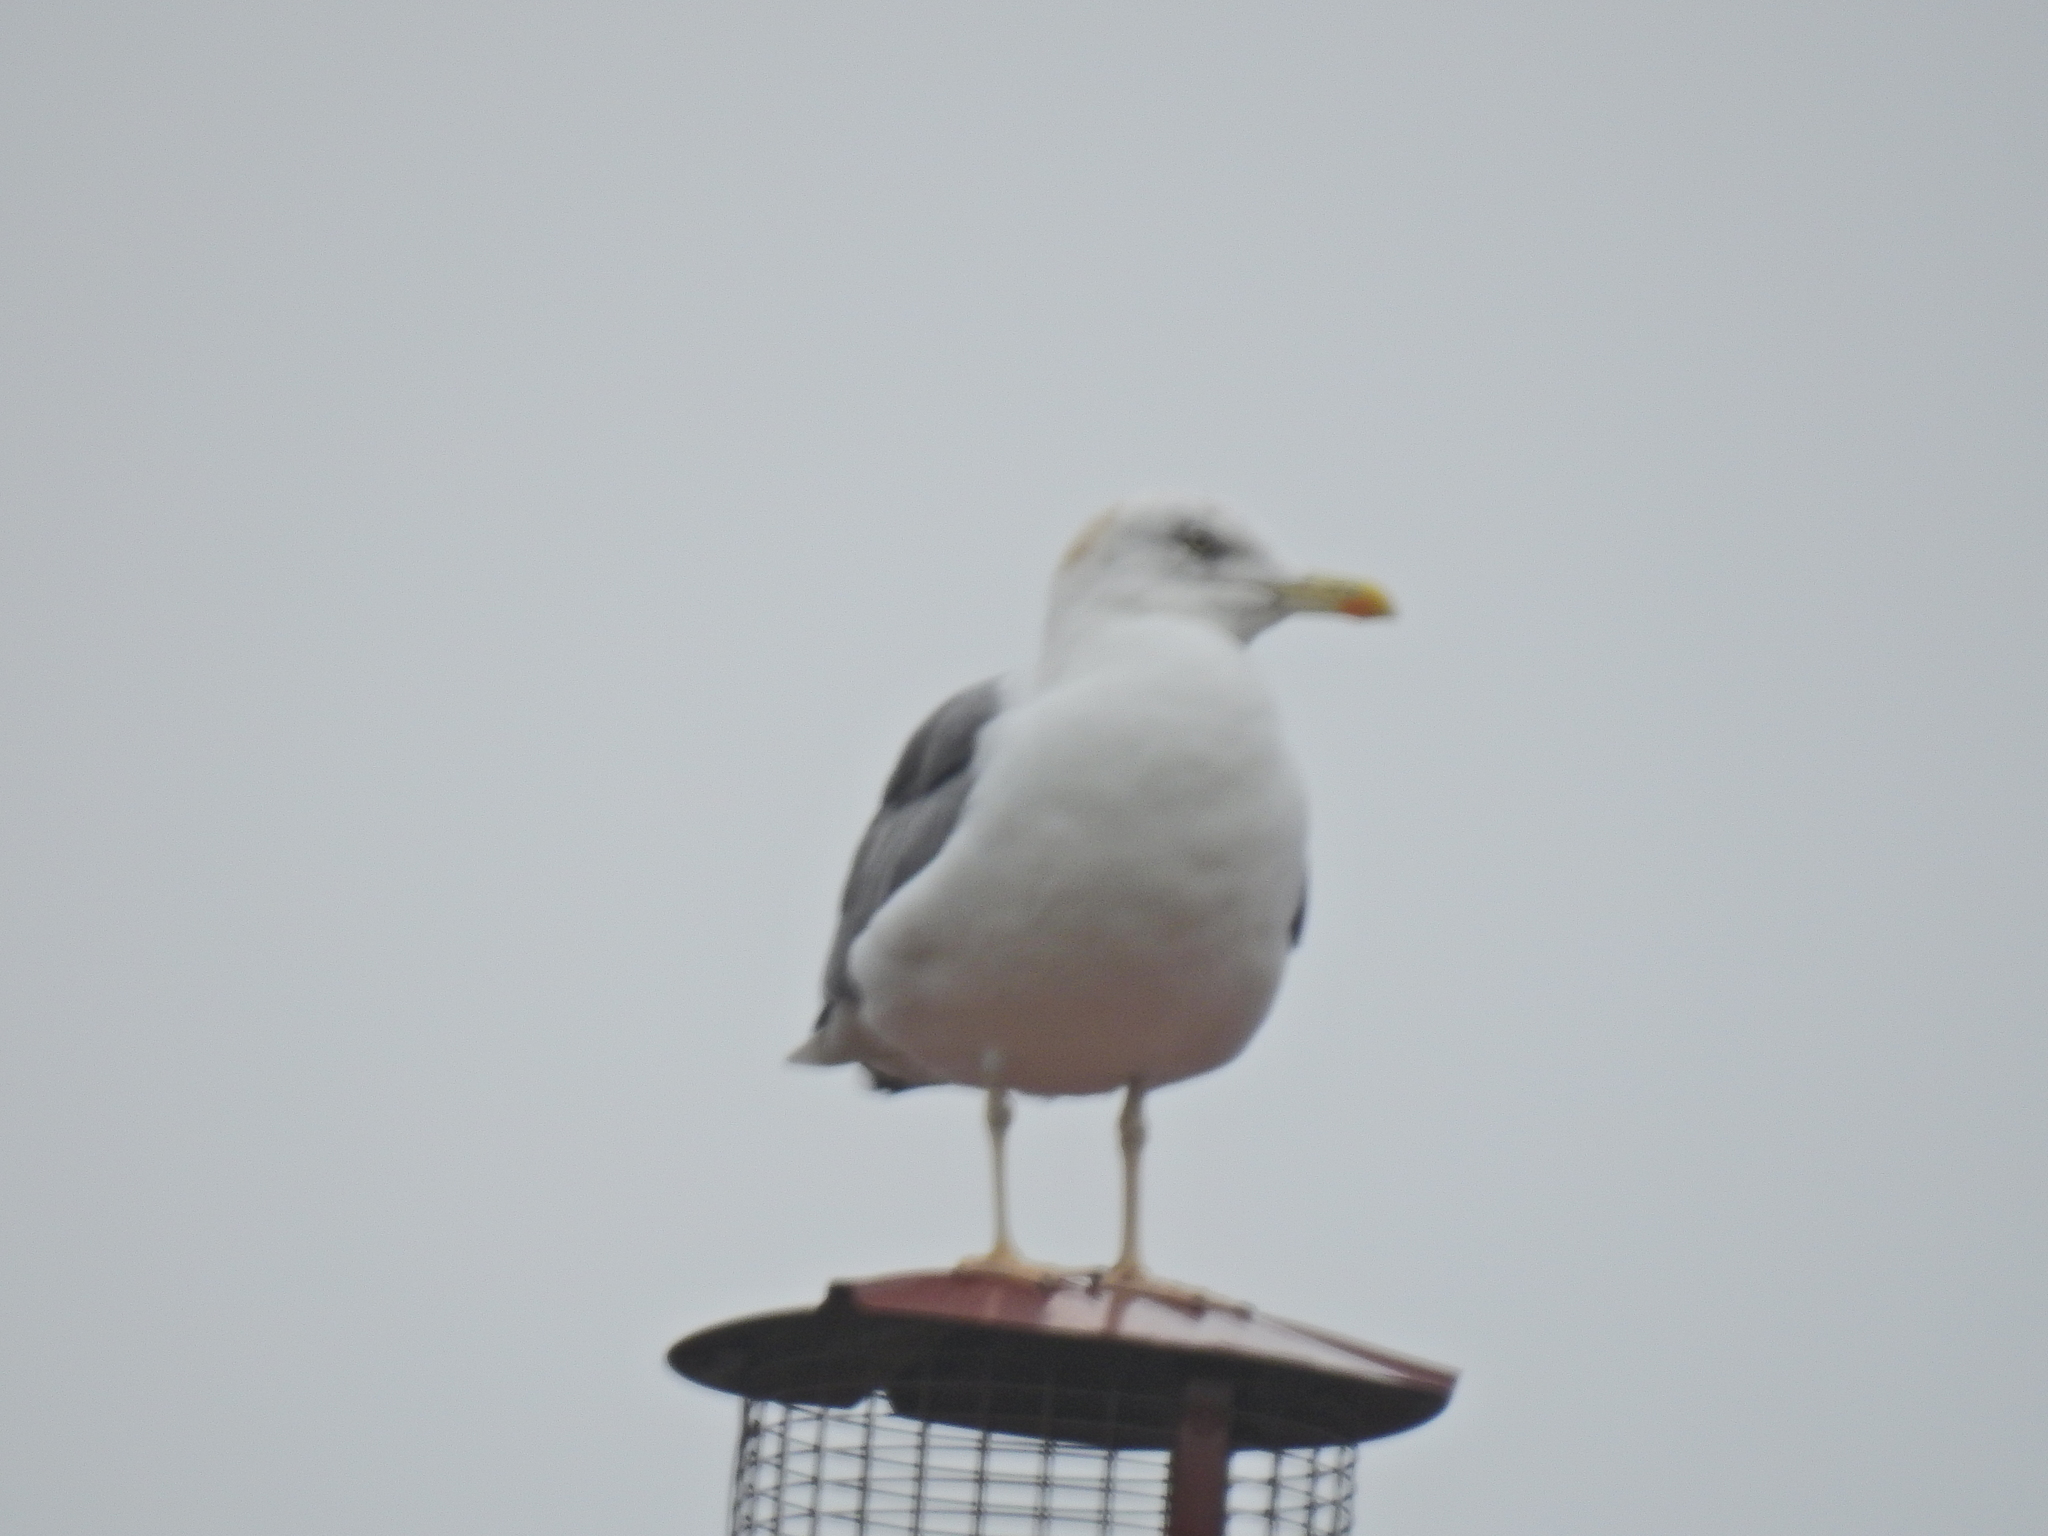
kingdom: Animalia
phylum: Chordata
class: Aves
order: Charadriiformes
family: Laridae
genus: Larus
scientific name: Larus fuscus
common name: Lesser black-backed gull
